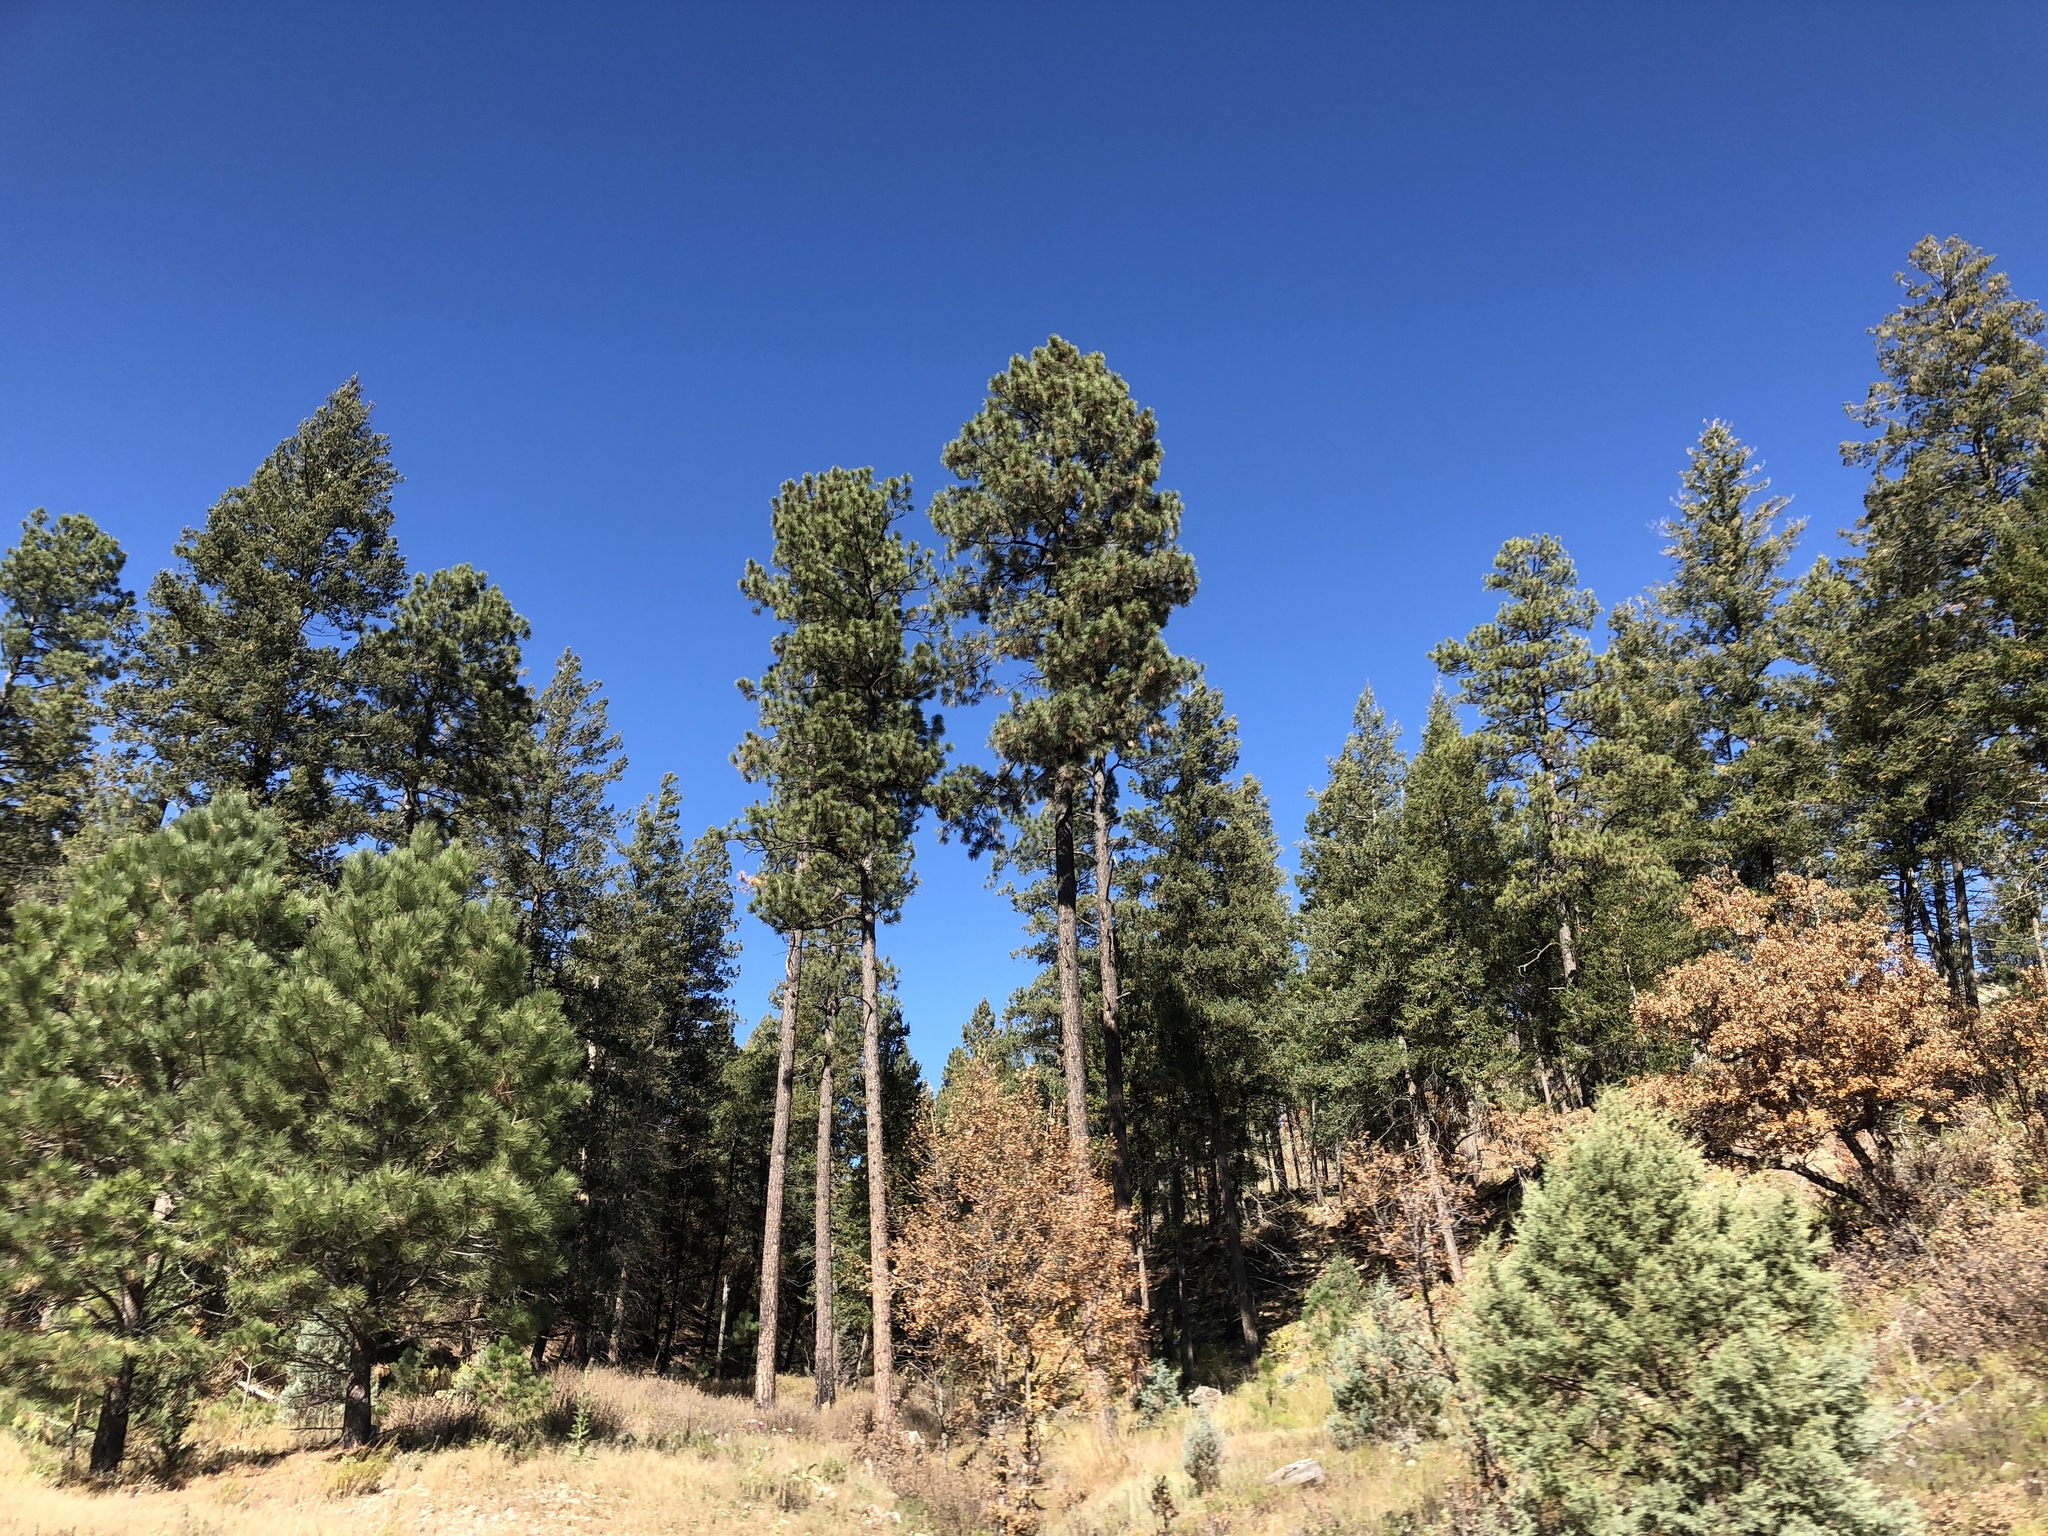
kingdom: Plantae
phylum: Tracheophyta
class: Pinopsida
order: Pinales
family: Pinaceae
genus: Pinus
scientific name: Pinus ponderosa
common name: Western yellow-pine
